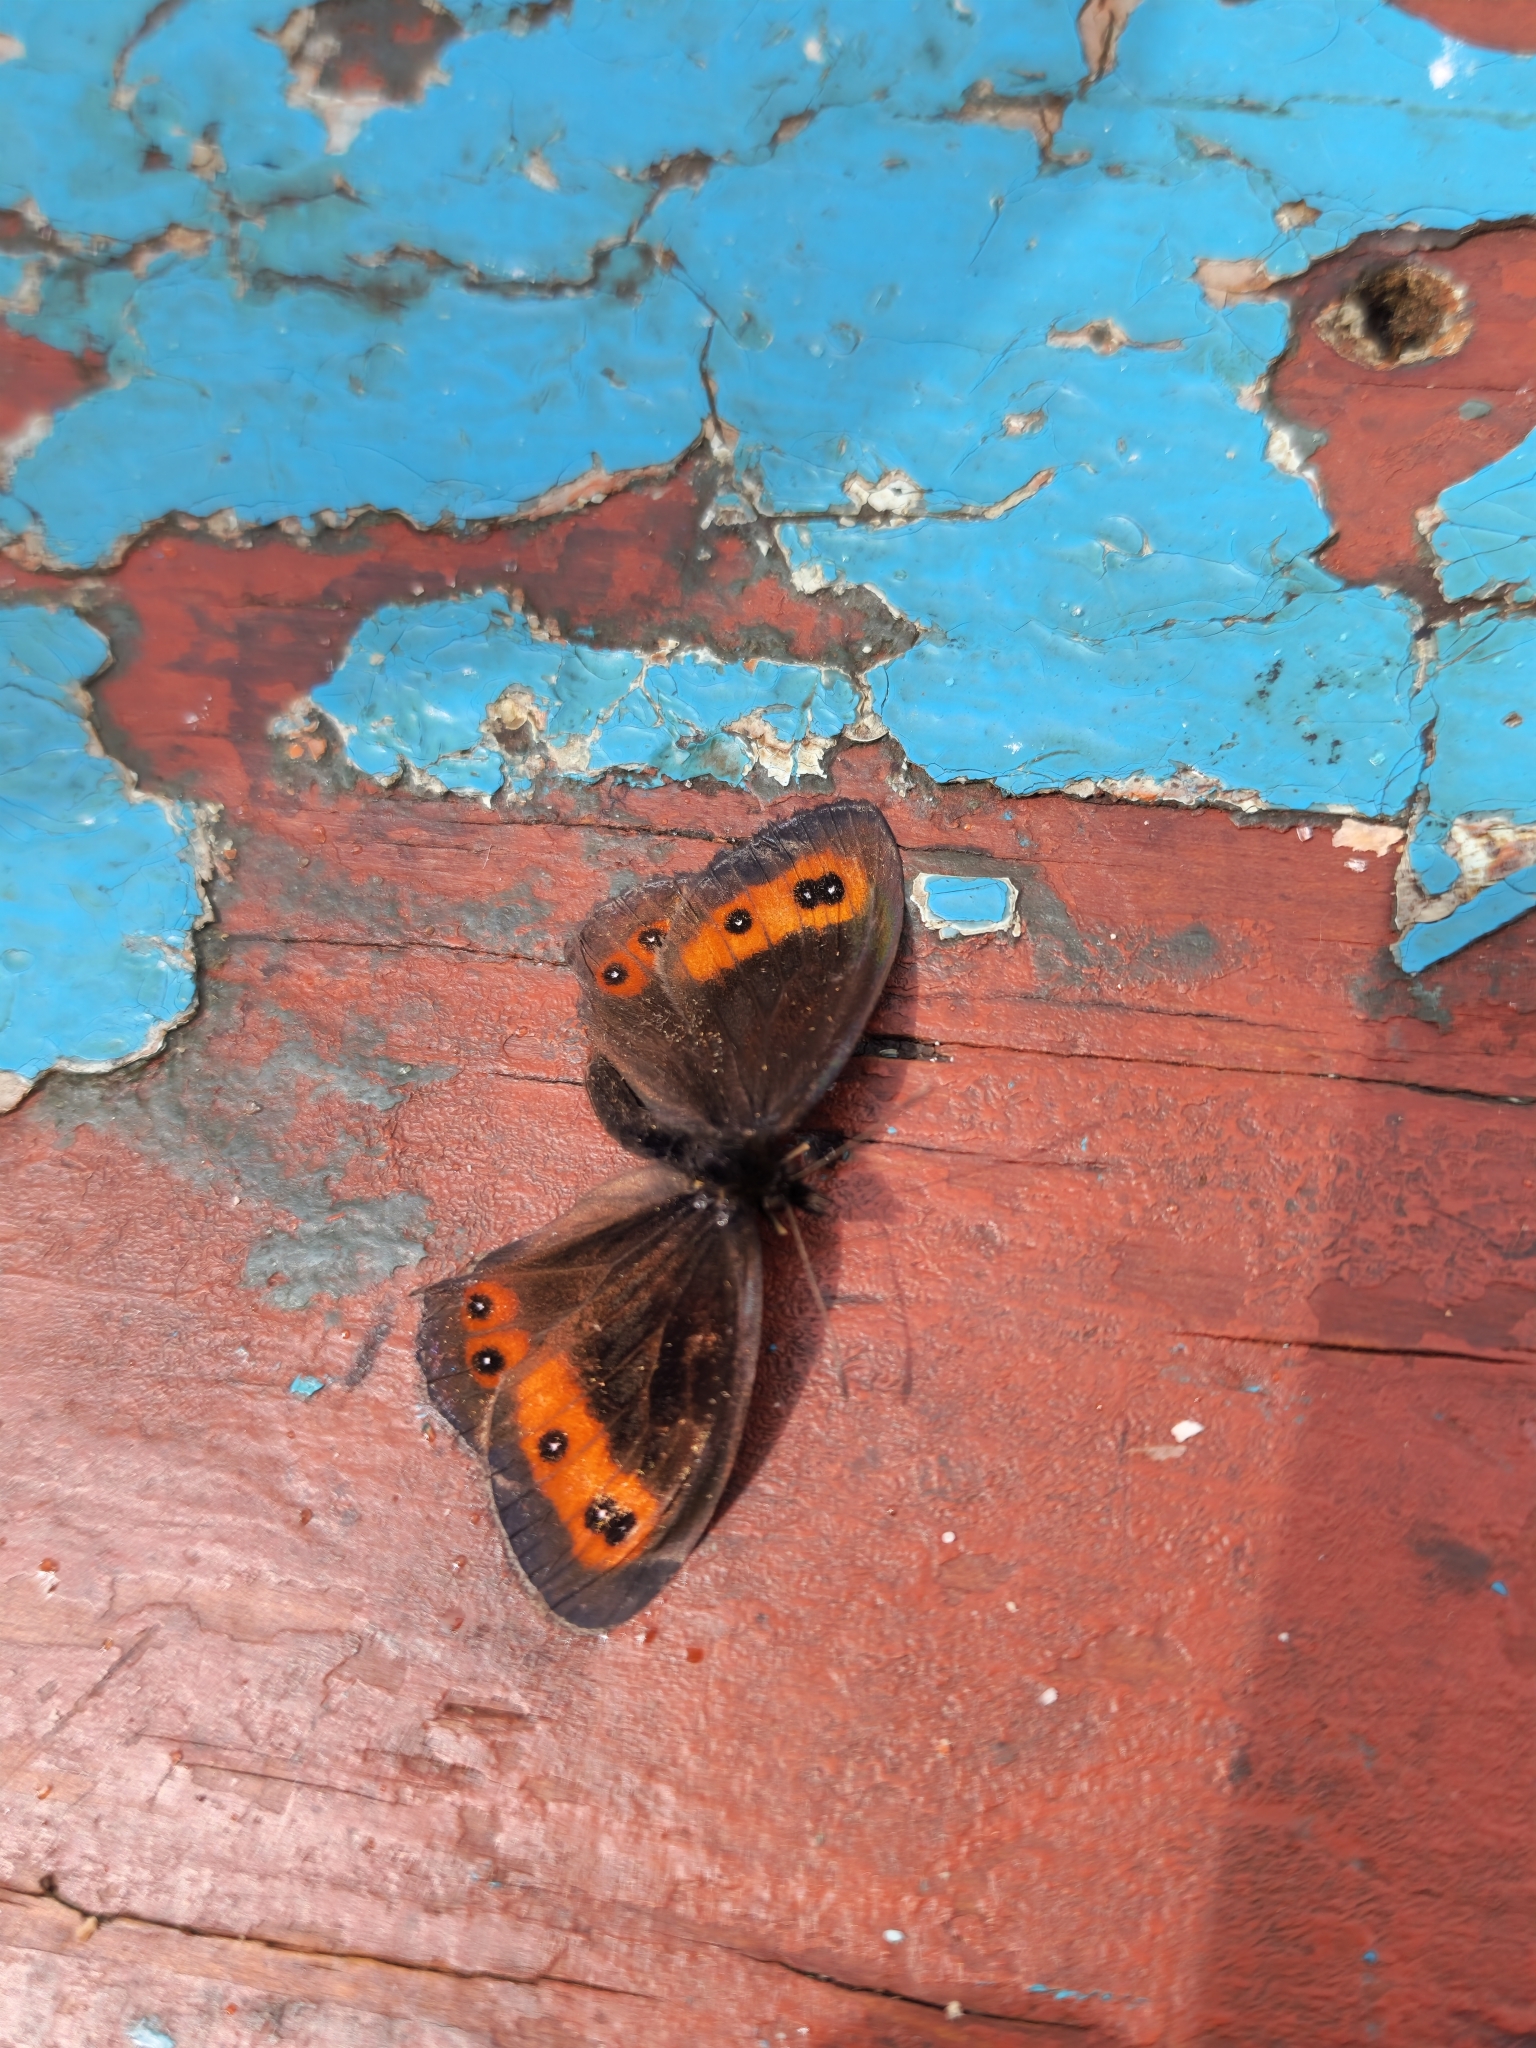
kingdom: Animalia
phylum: Arthropoda
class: Insecta
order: Lepidoptera
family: Nymphalidae
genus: Erebia
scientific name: Erebia aethiops
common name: Scotch argus
